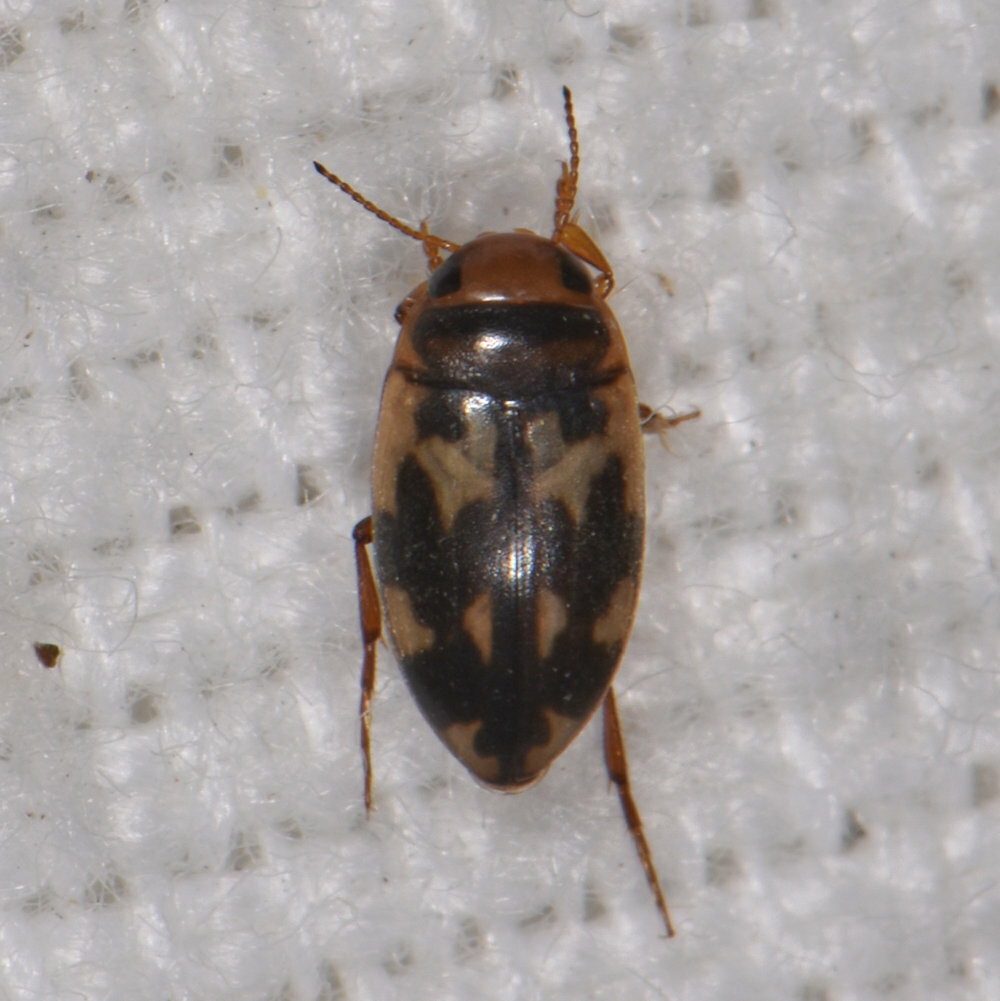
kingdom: Animalia
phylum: Arthropoda
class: Insecta
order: Coleoptera
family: Dytiscidae
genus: Heterosternuta
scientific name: Heterosternuta
